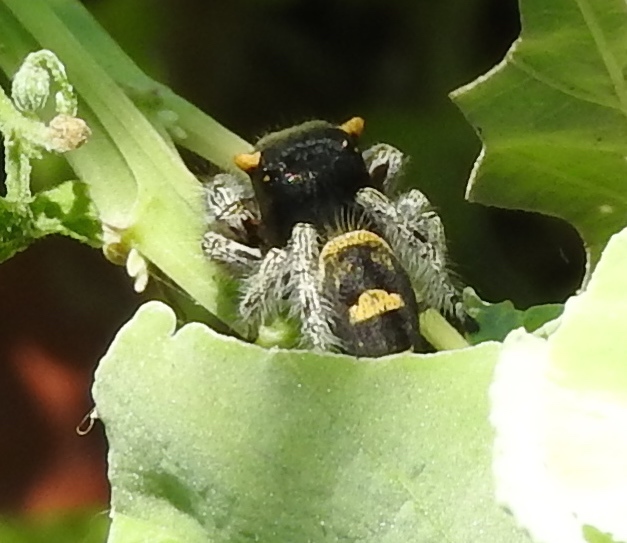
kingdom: Animalia
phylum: Arthropoda
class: Arachnida
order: Araneae
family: Salticidae
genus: Phidippus
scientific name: Phidippus pacosauritus
